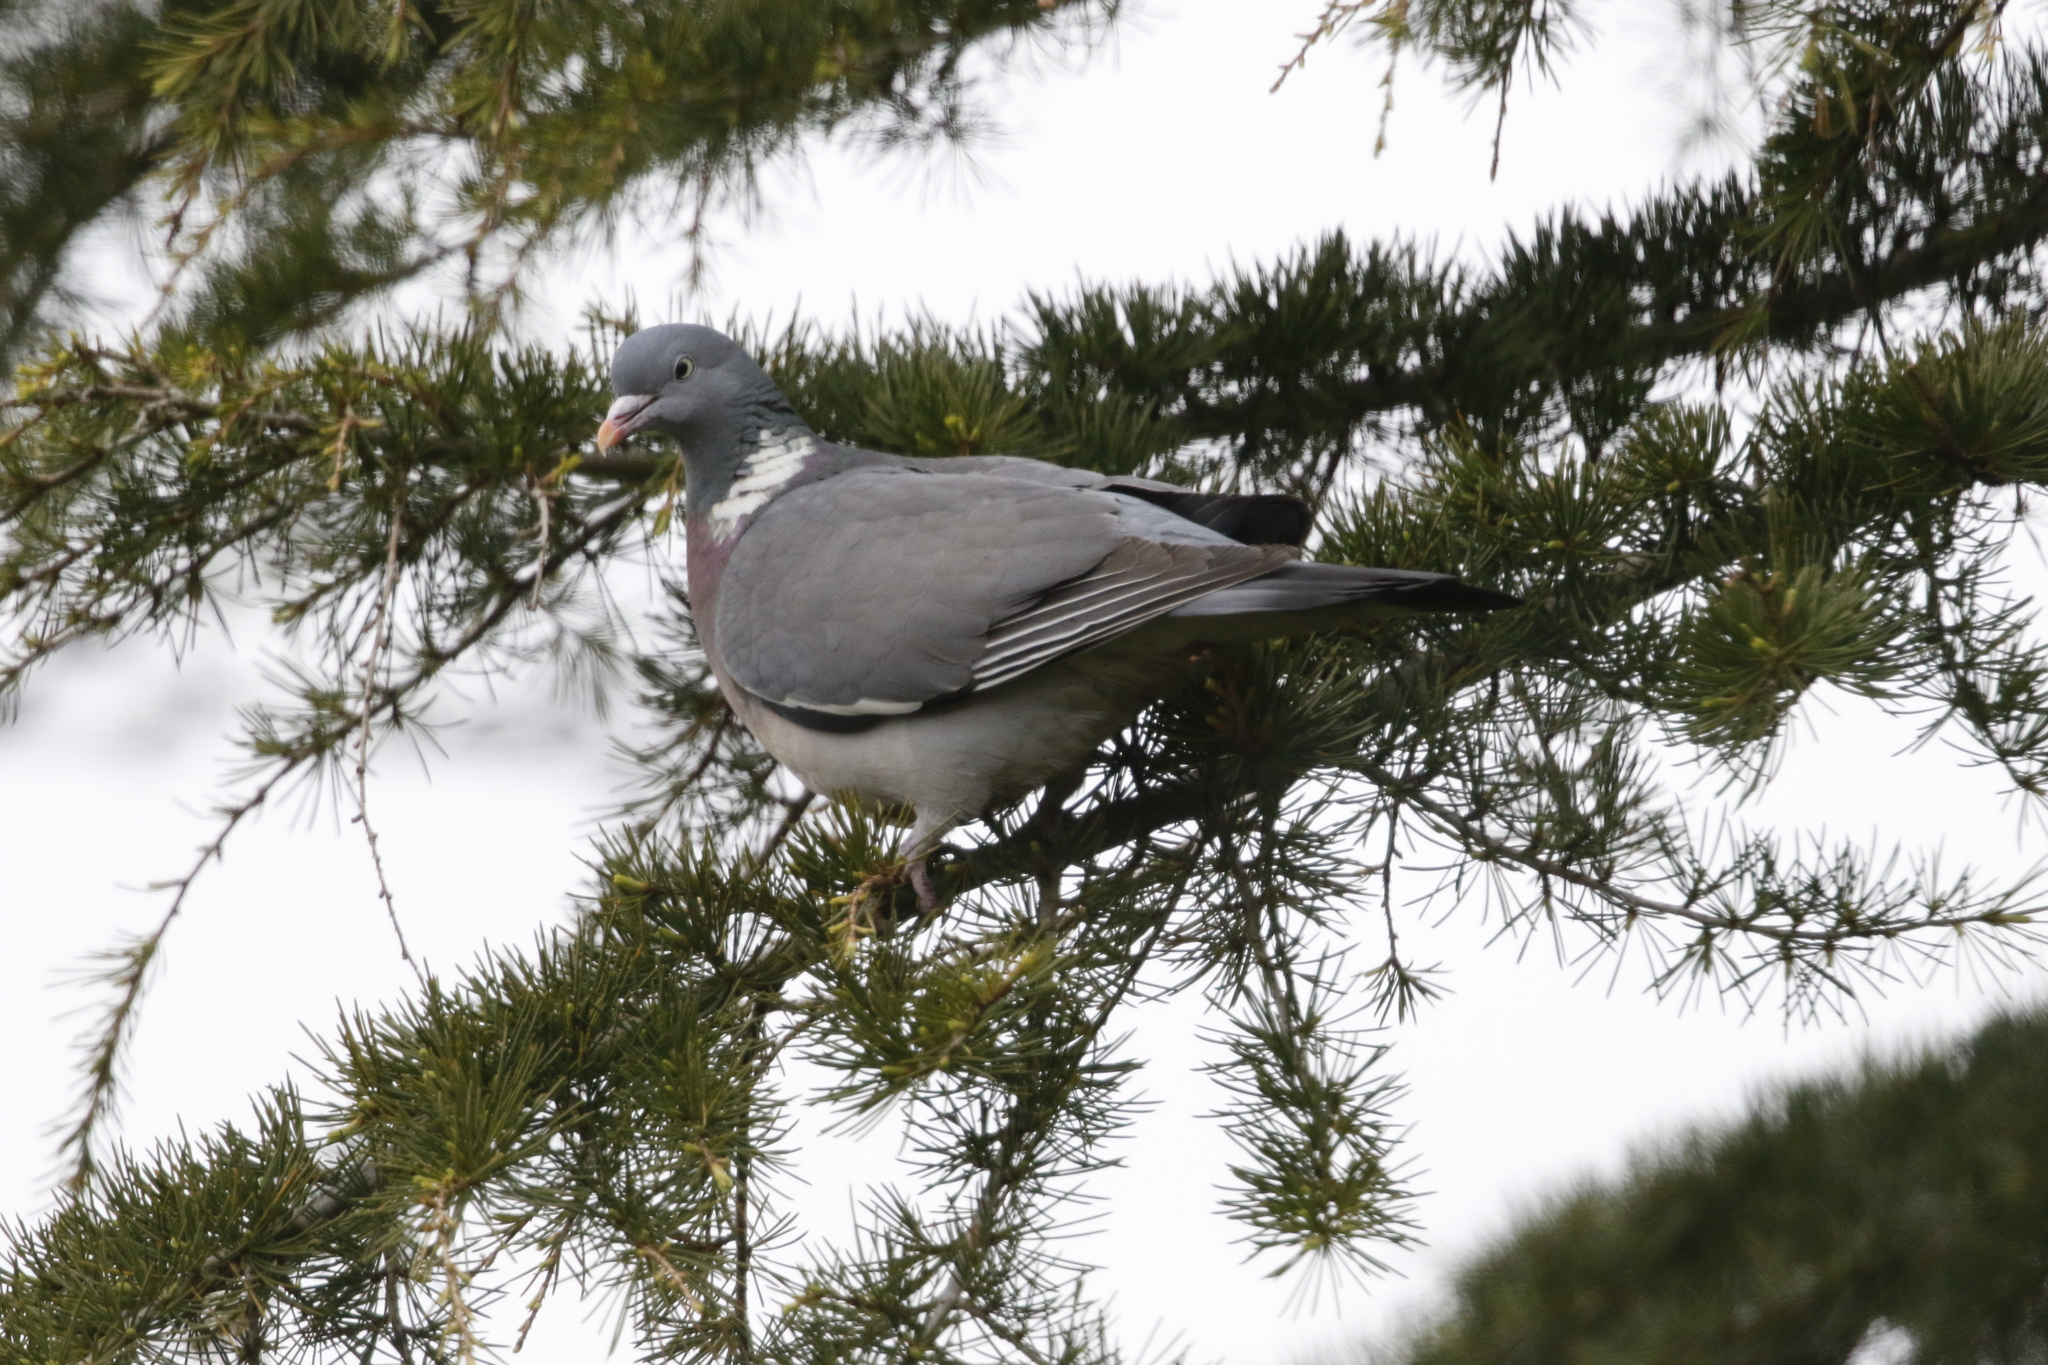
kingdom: Animalia
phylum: Chordata
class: Aves
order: Columbiformes
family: Columbidae
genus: Columba
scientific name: Columba palumbus
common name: Common wood pigeon
